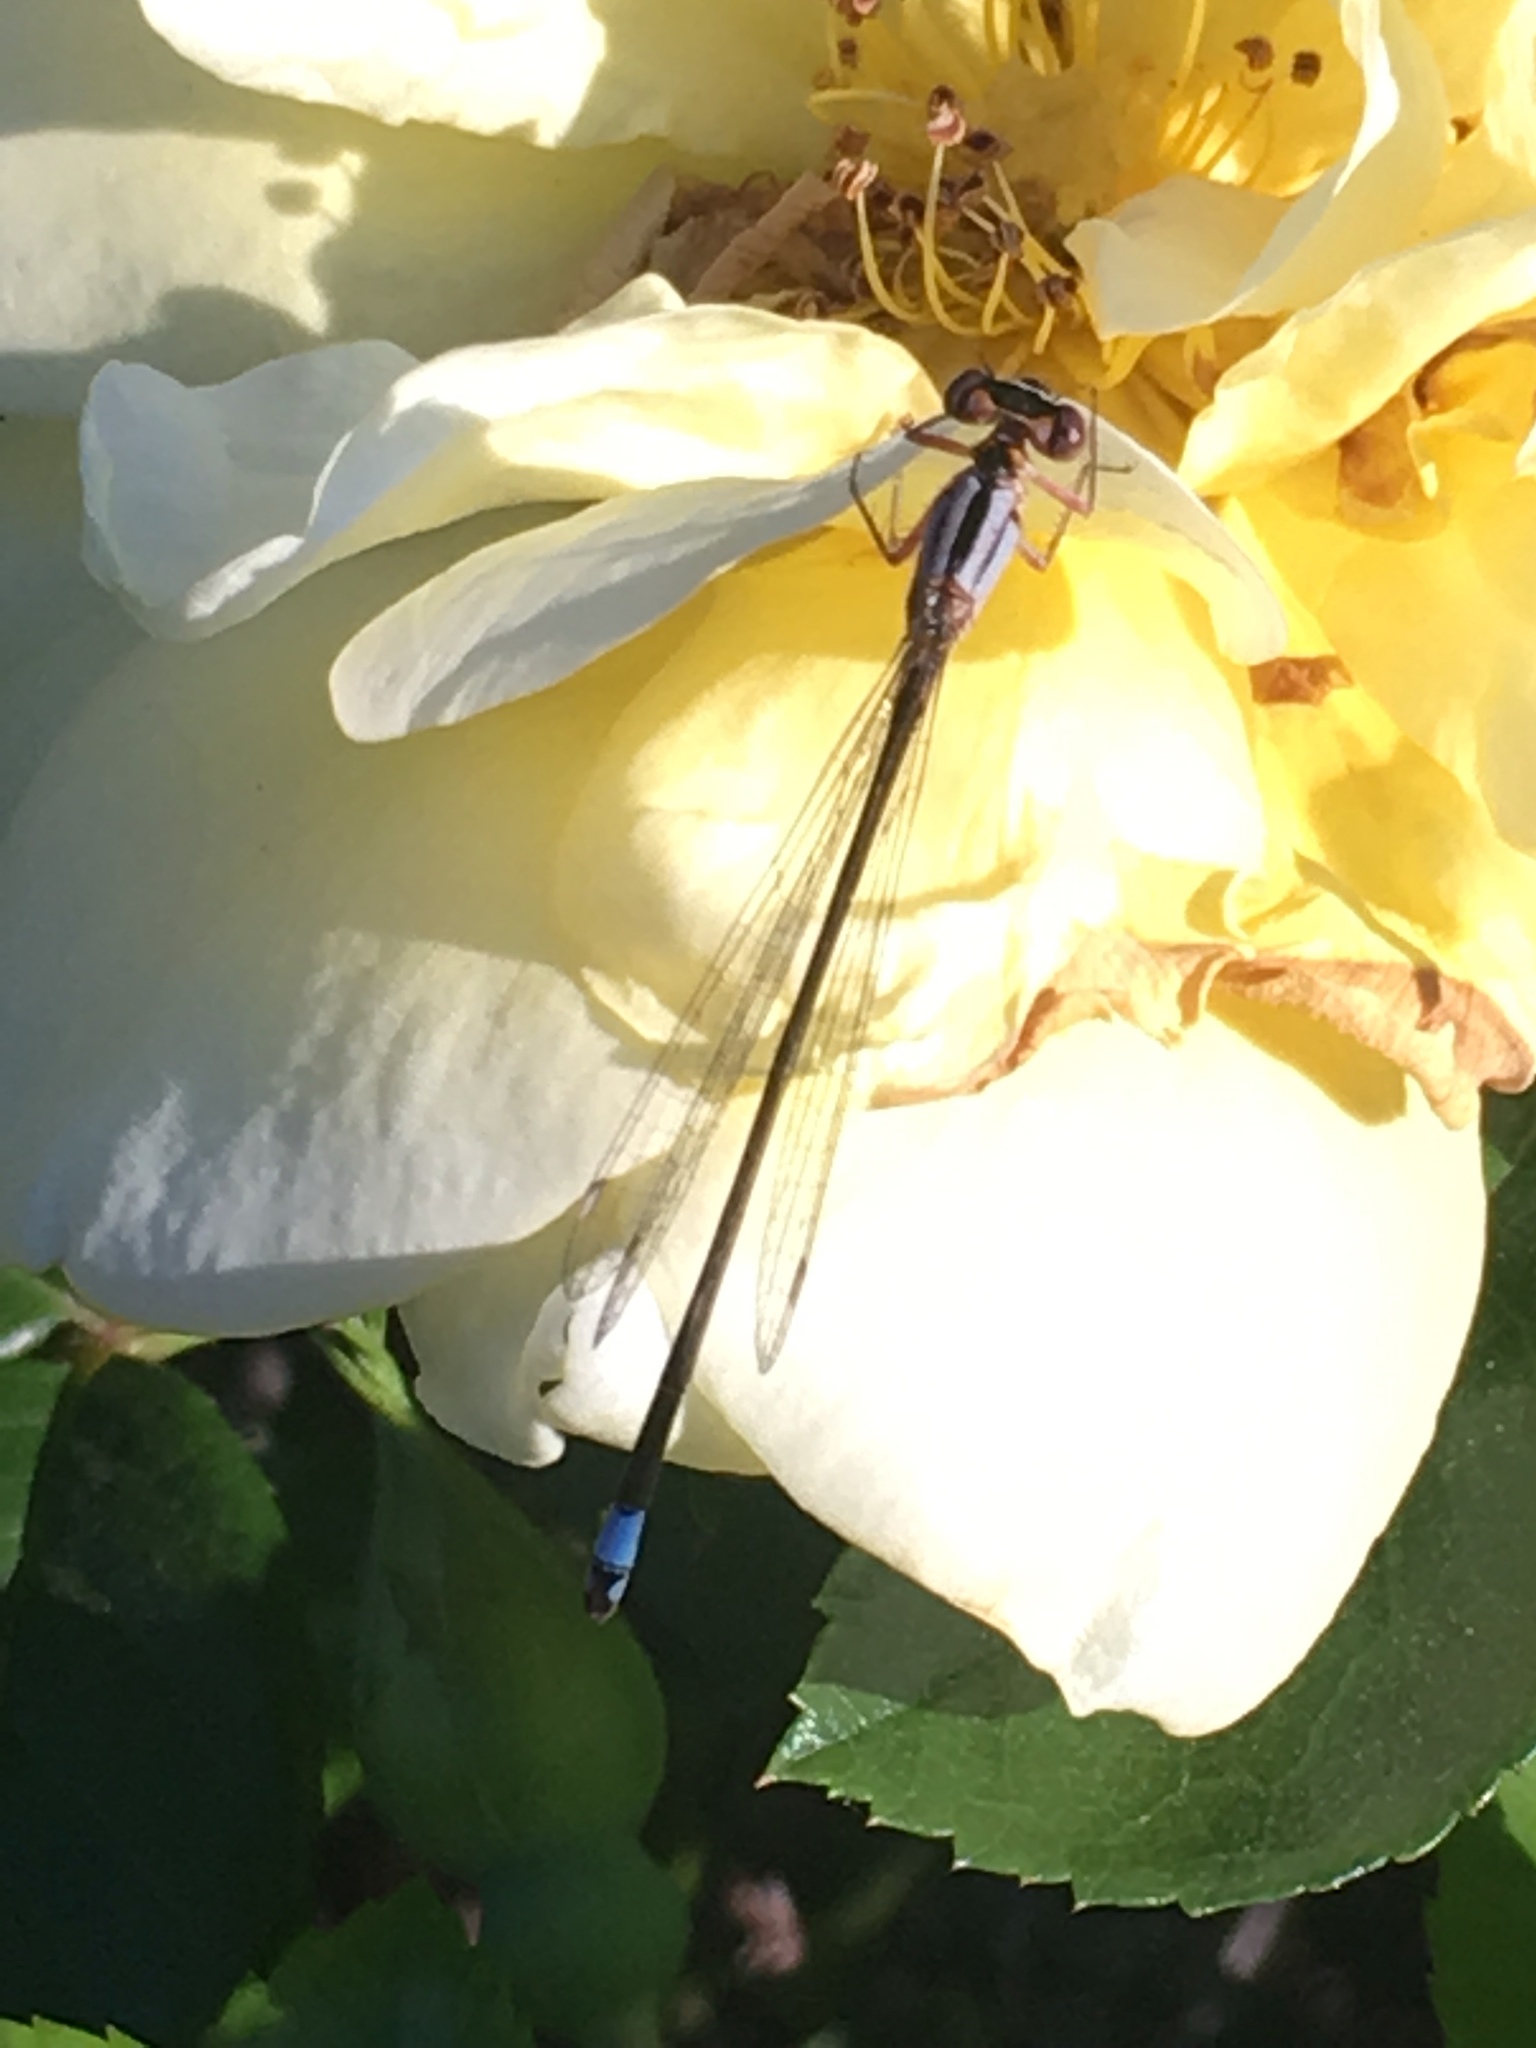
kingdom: Animalia
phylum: Arthropoda
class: Insecta
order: Odonata
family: Coenagrionidae
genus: Ischnura
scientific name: Ischnura cervula
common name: Pacific forktail
